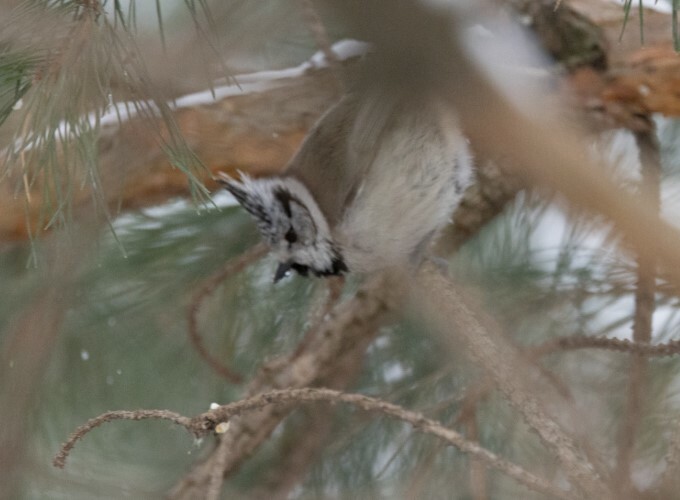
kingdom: Animalia
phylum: Chordata
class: Aves
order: Passeriformes
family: Paridae
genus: Lophophanes
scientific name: Lophophanes cristatus
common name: European crested tit
